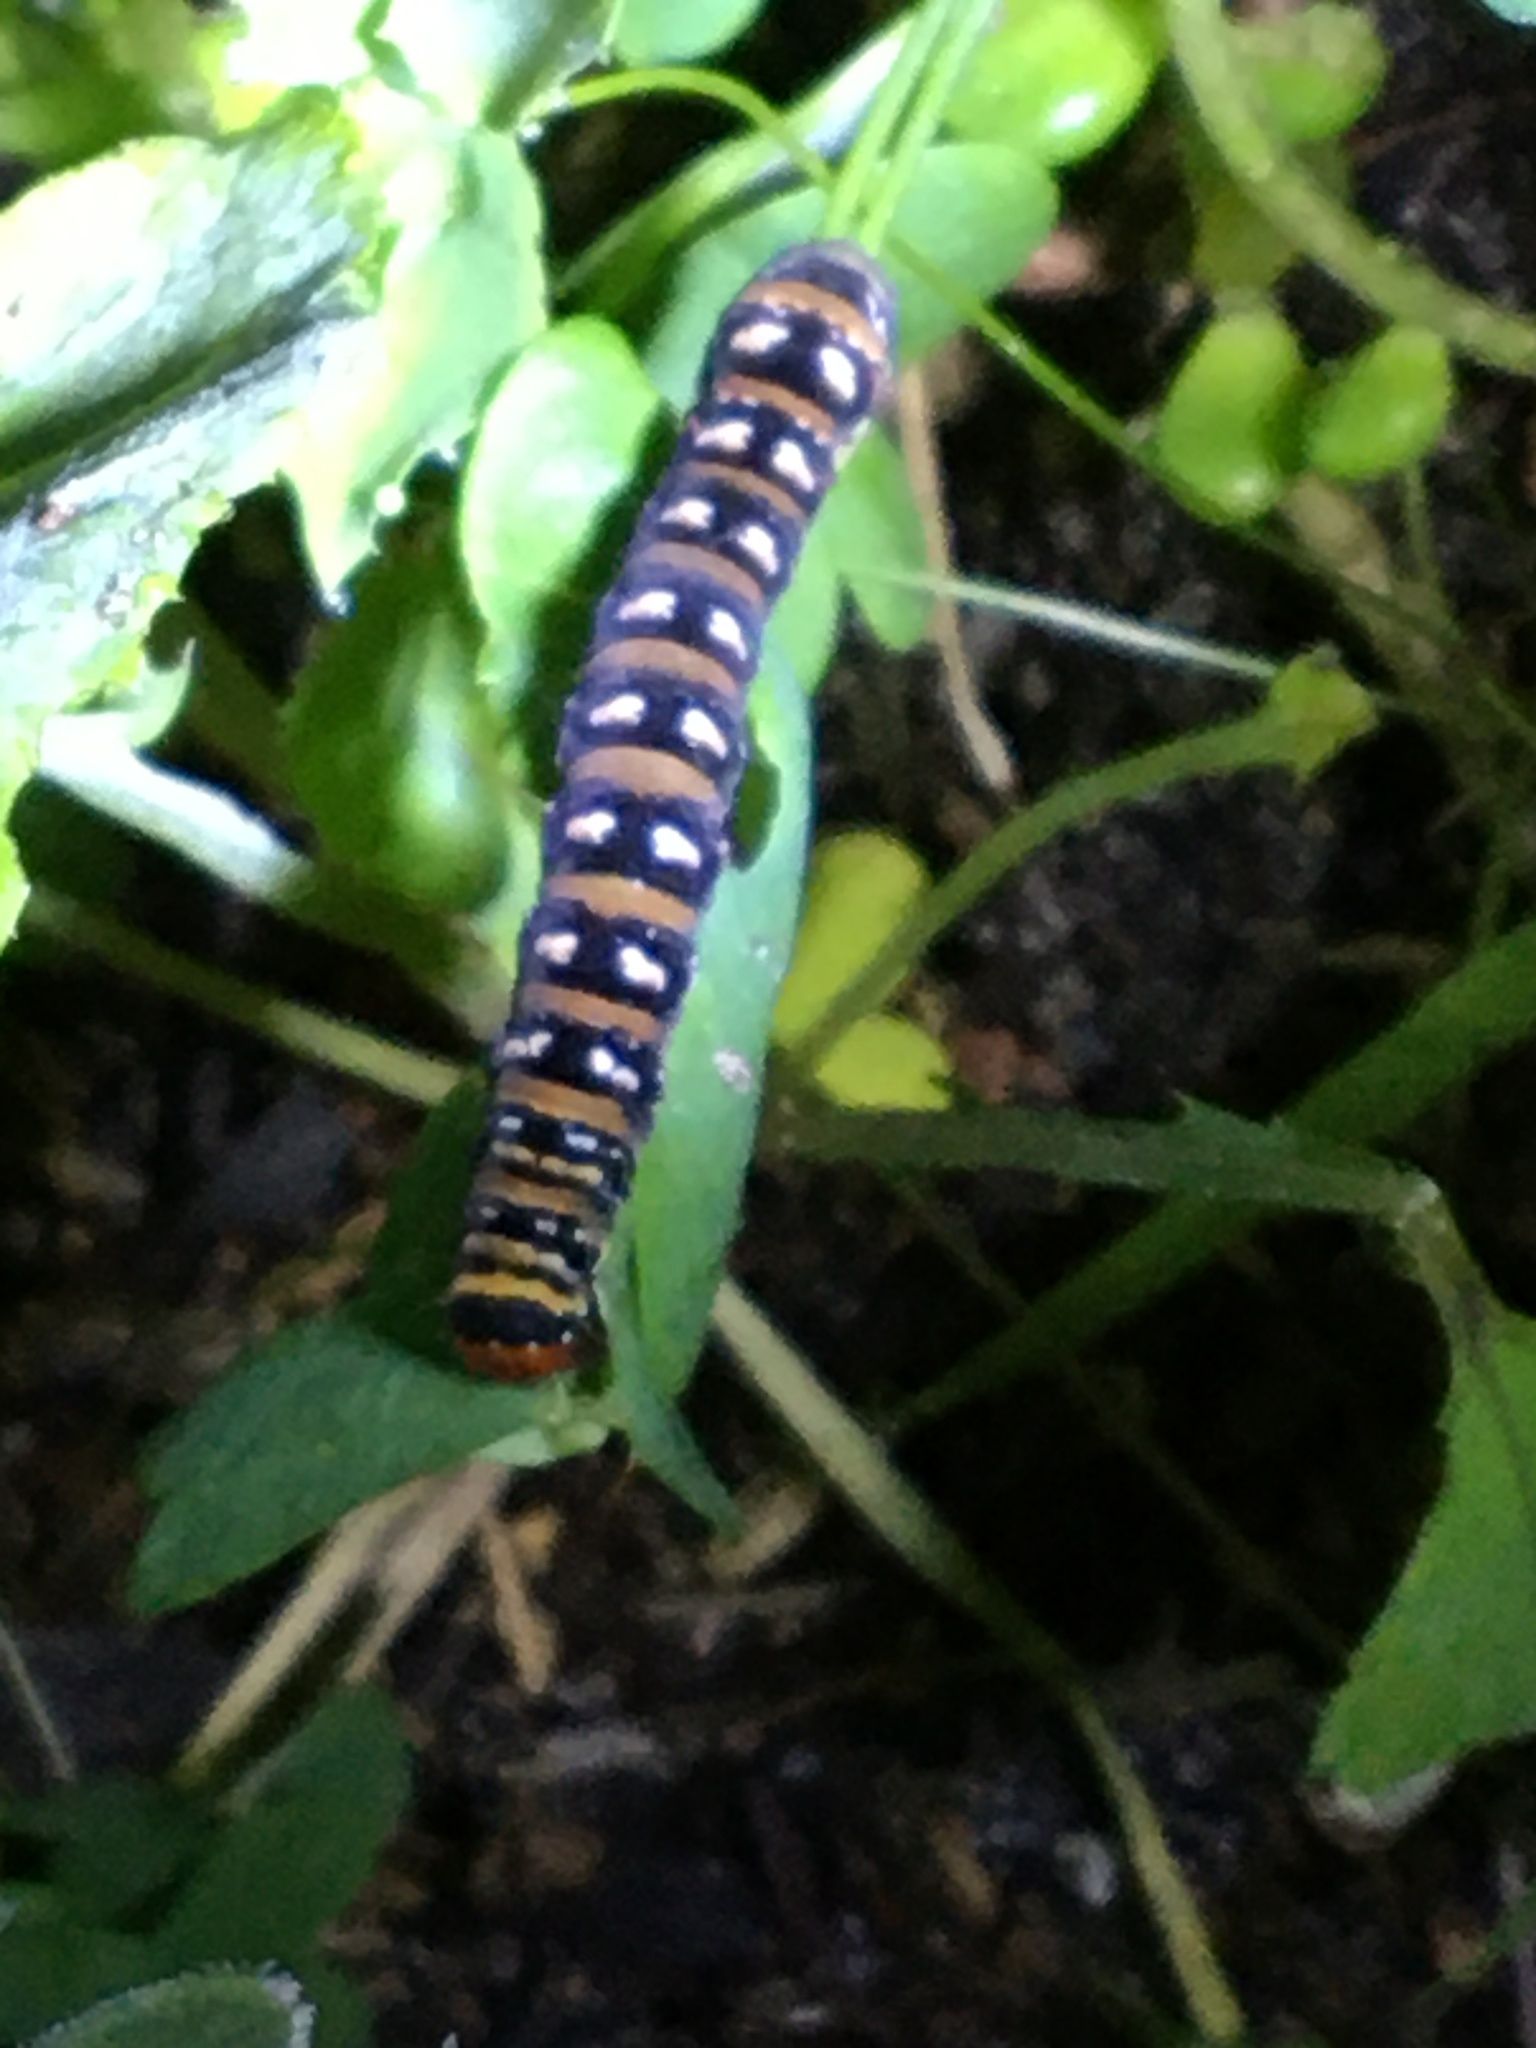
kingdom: Animalia
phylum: Arthropoda
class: Insecta
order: Lepidoptera
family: Noctuidae
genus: Klugeana
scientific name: Klugeana philoxalis
